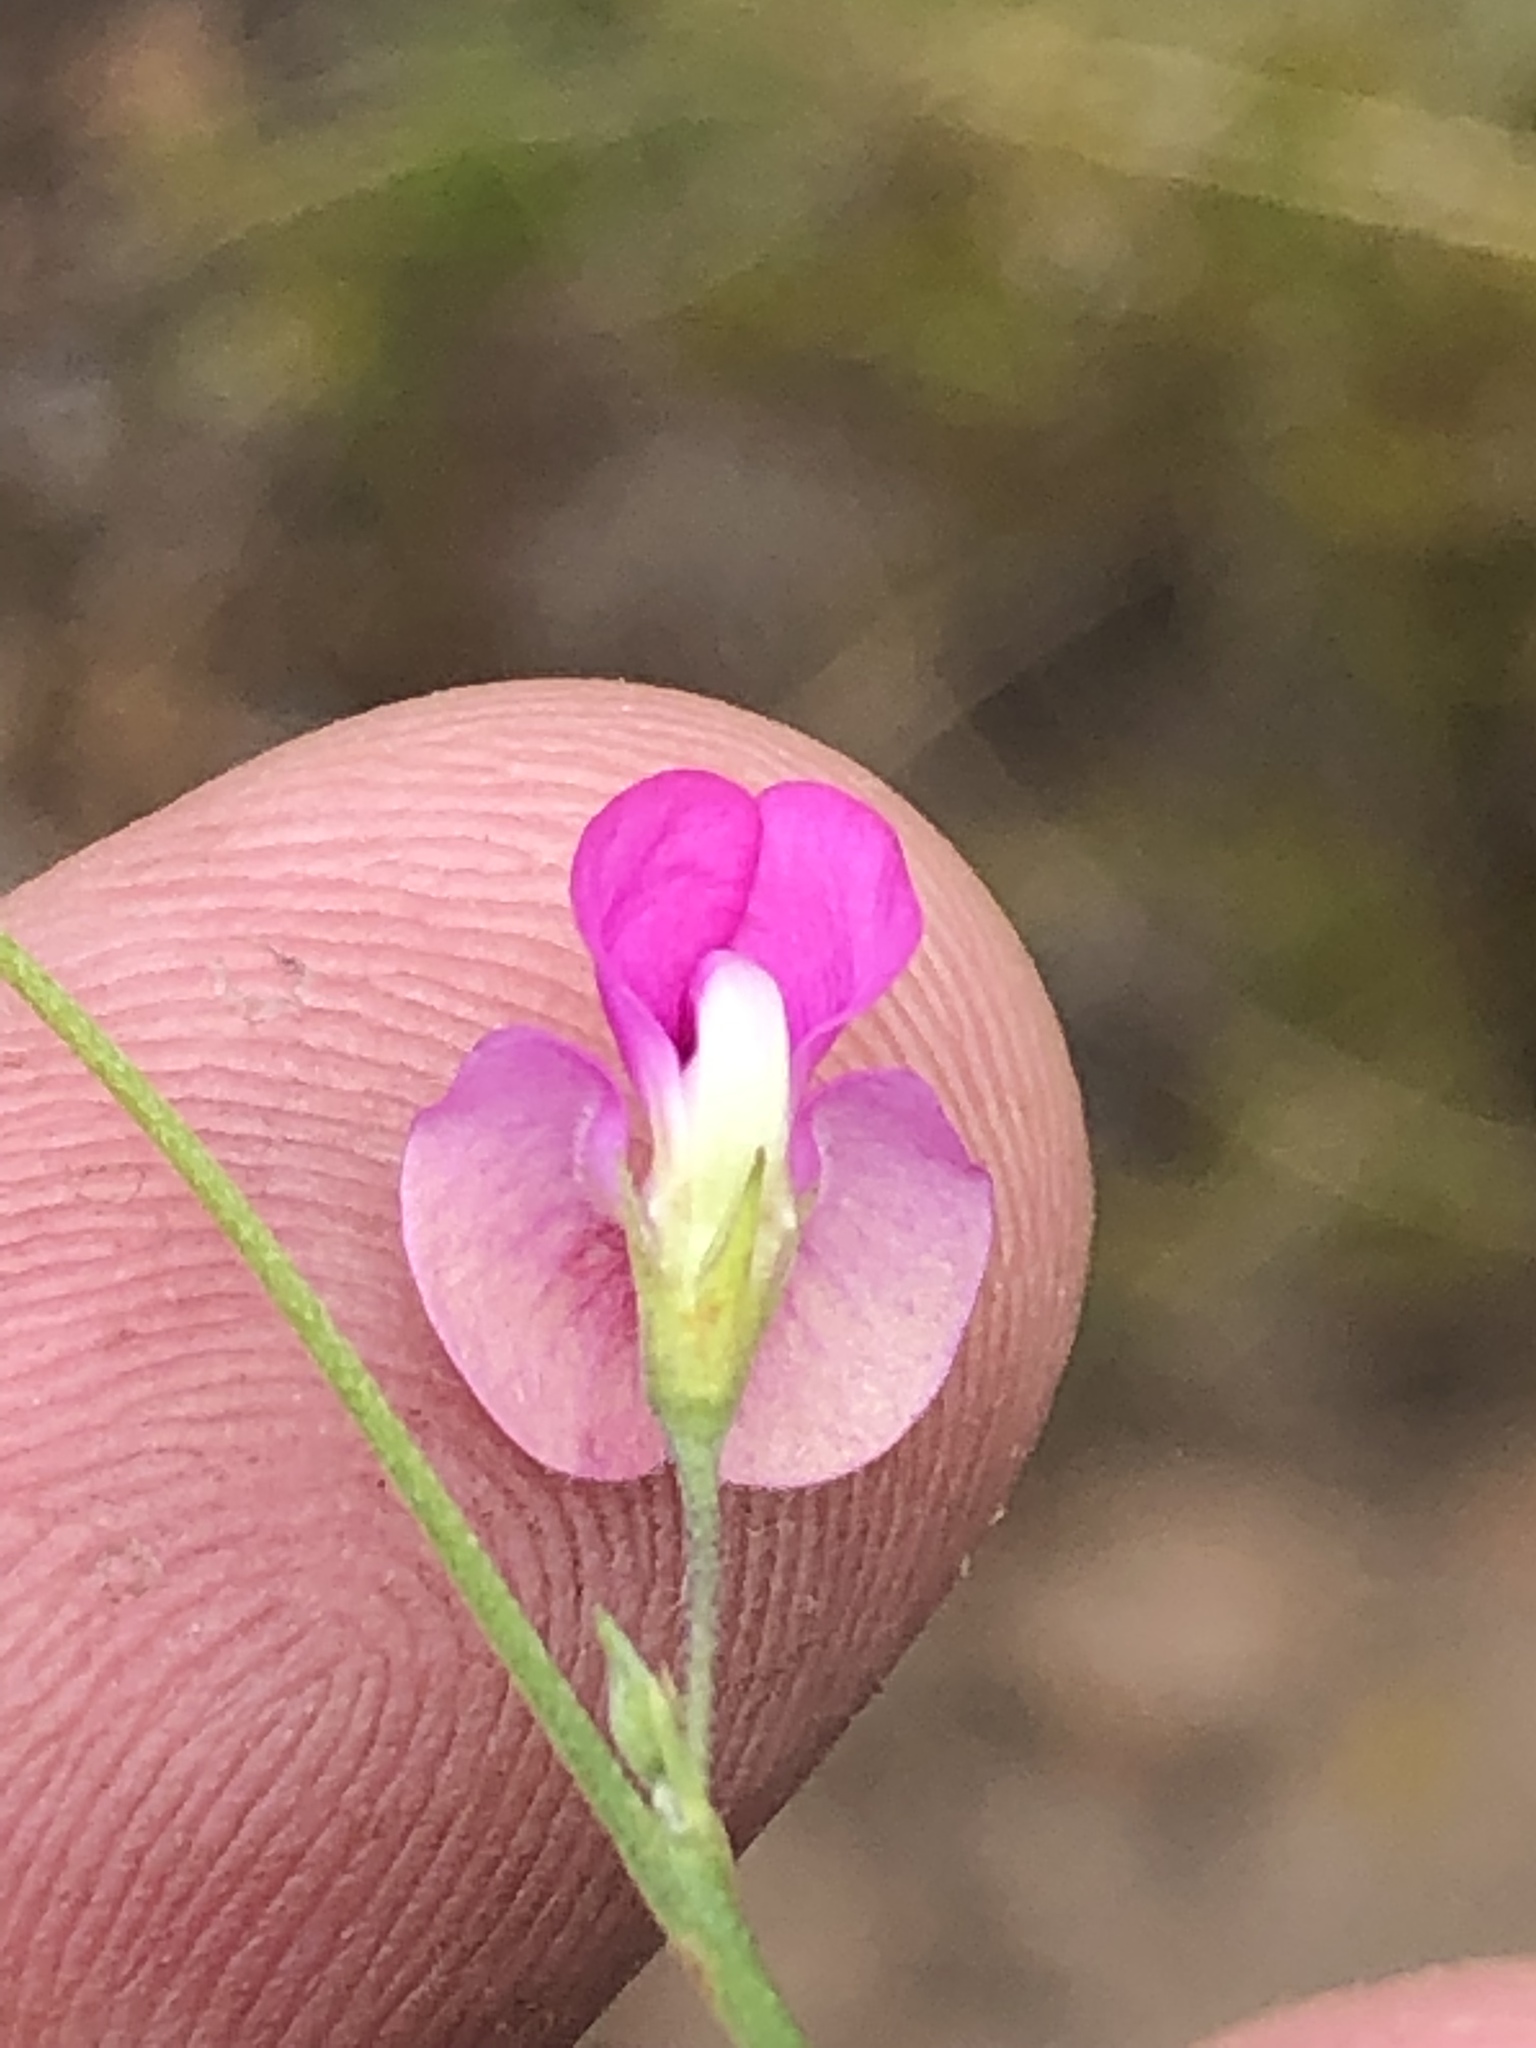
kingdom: Plantae
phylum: Tracheophyta
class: Magnoliopsida
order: Fabales
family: Fabaceae
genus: Tephrosia
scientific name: Tephrosia capensis
